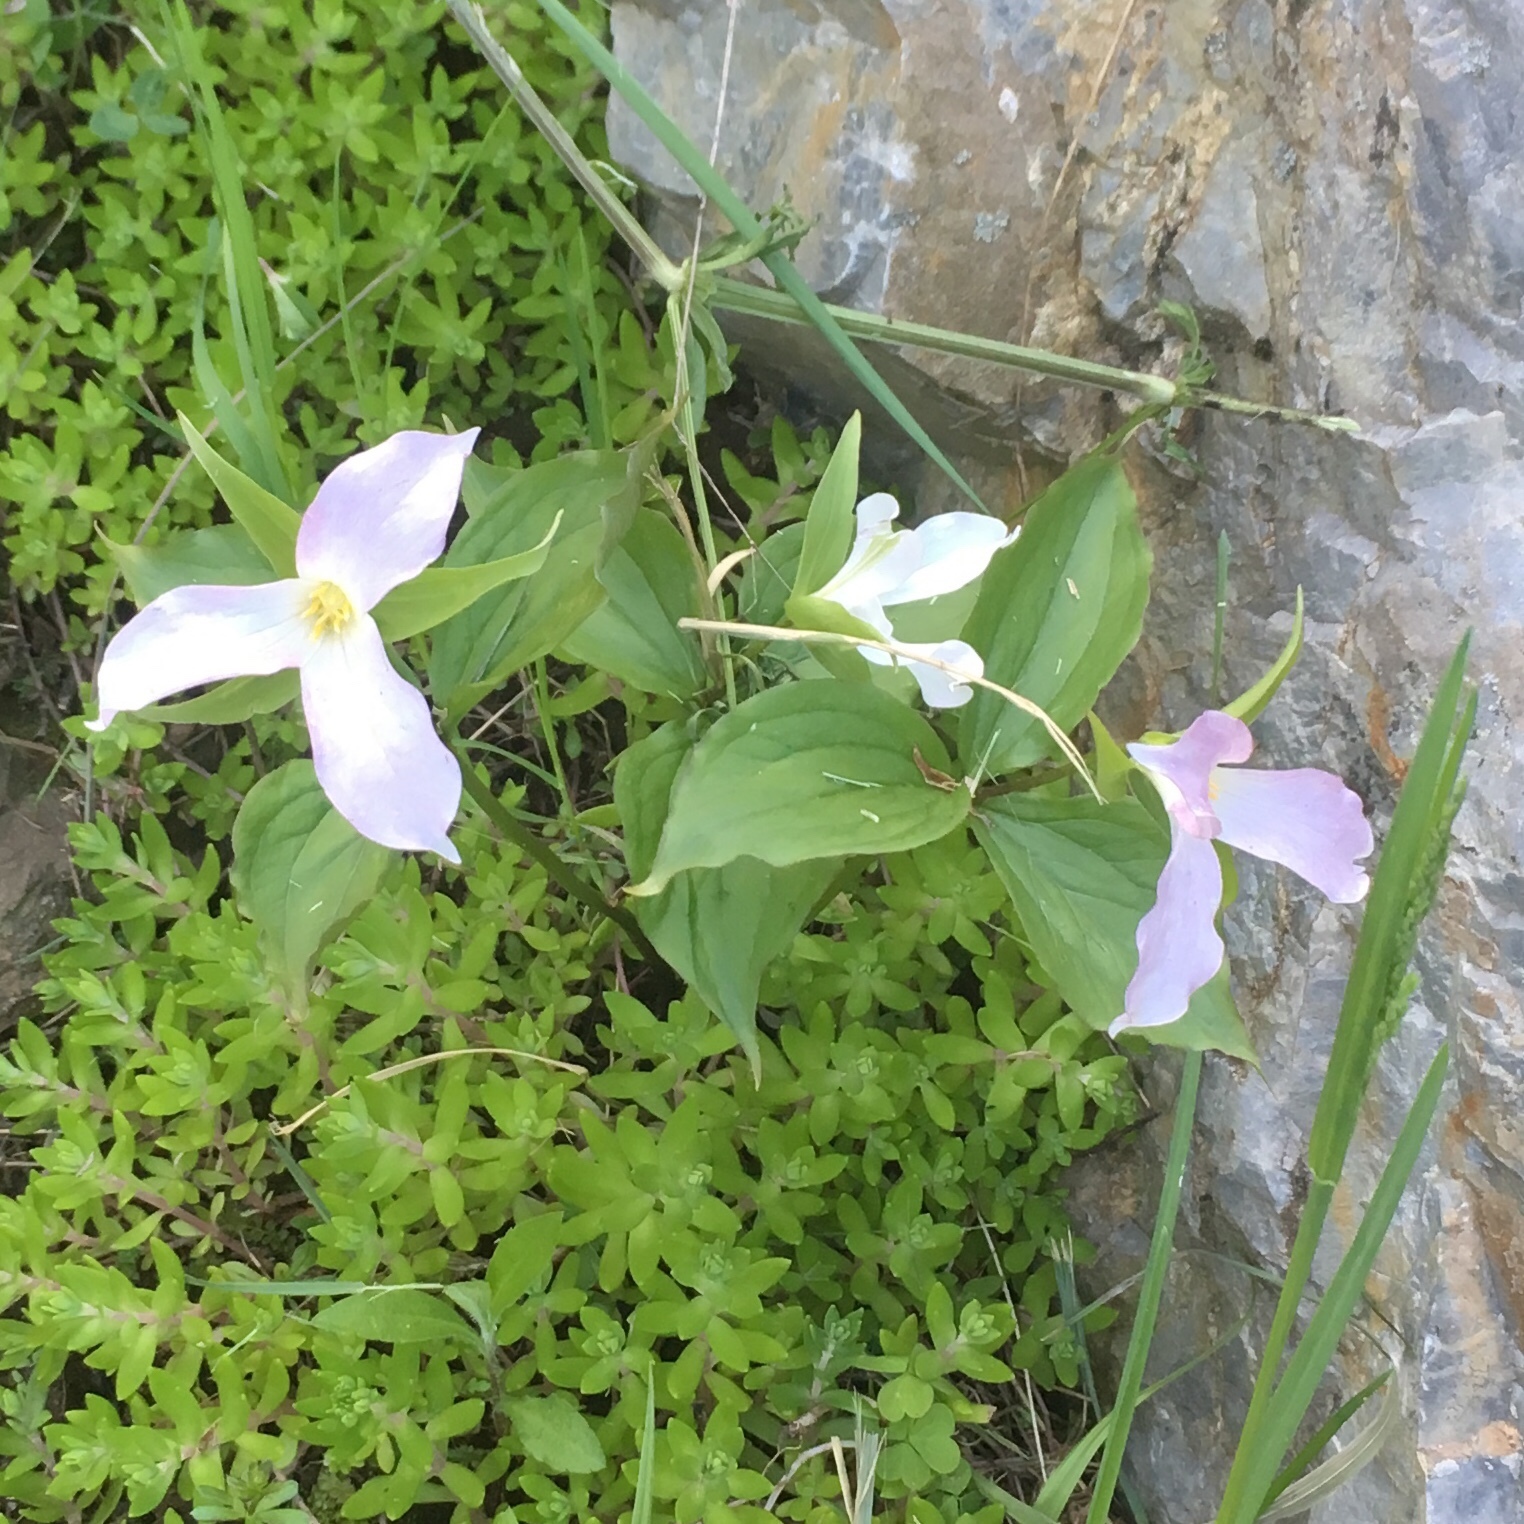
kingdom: Plantae
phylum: Tracheophyta
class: Liliopsida
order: Liliales
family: Melanthiaceae
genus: Trillium
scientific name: Trillium grandiflorum
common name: Great white trillium
